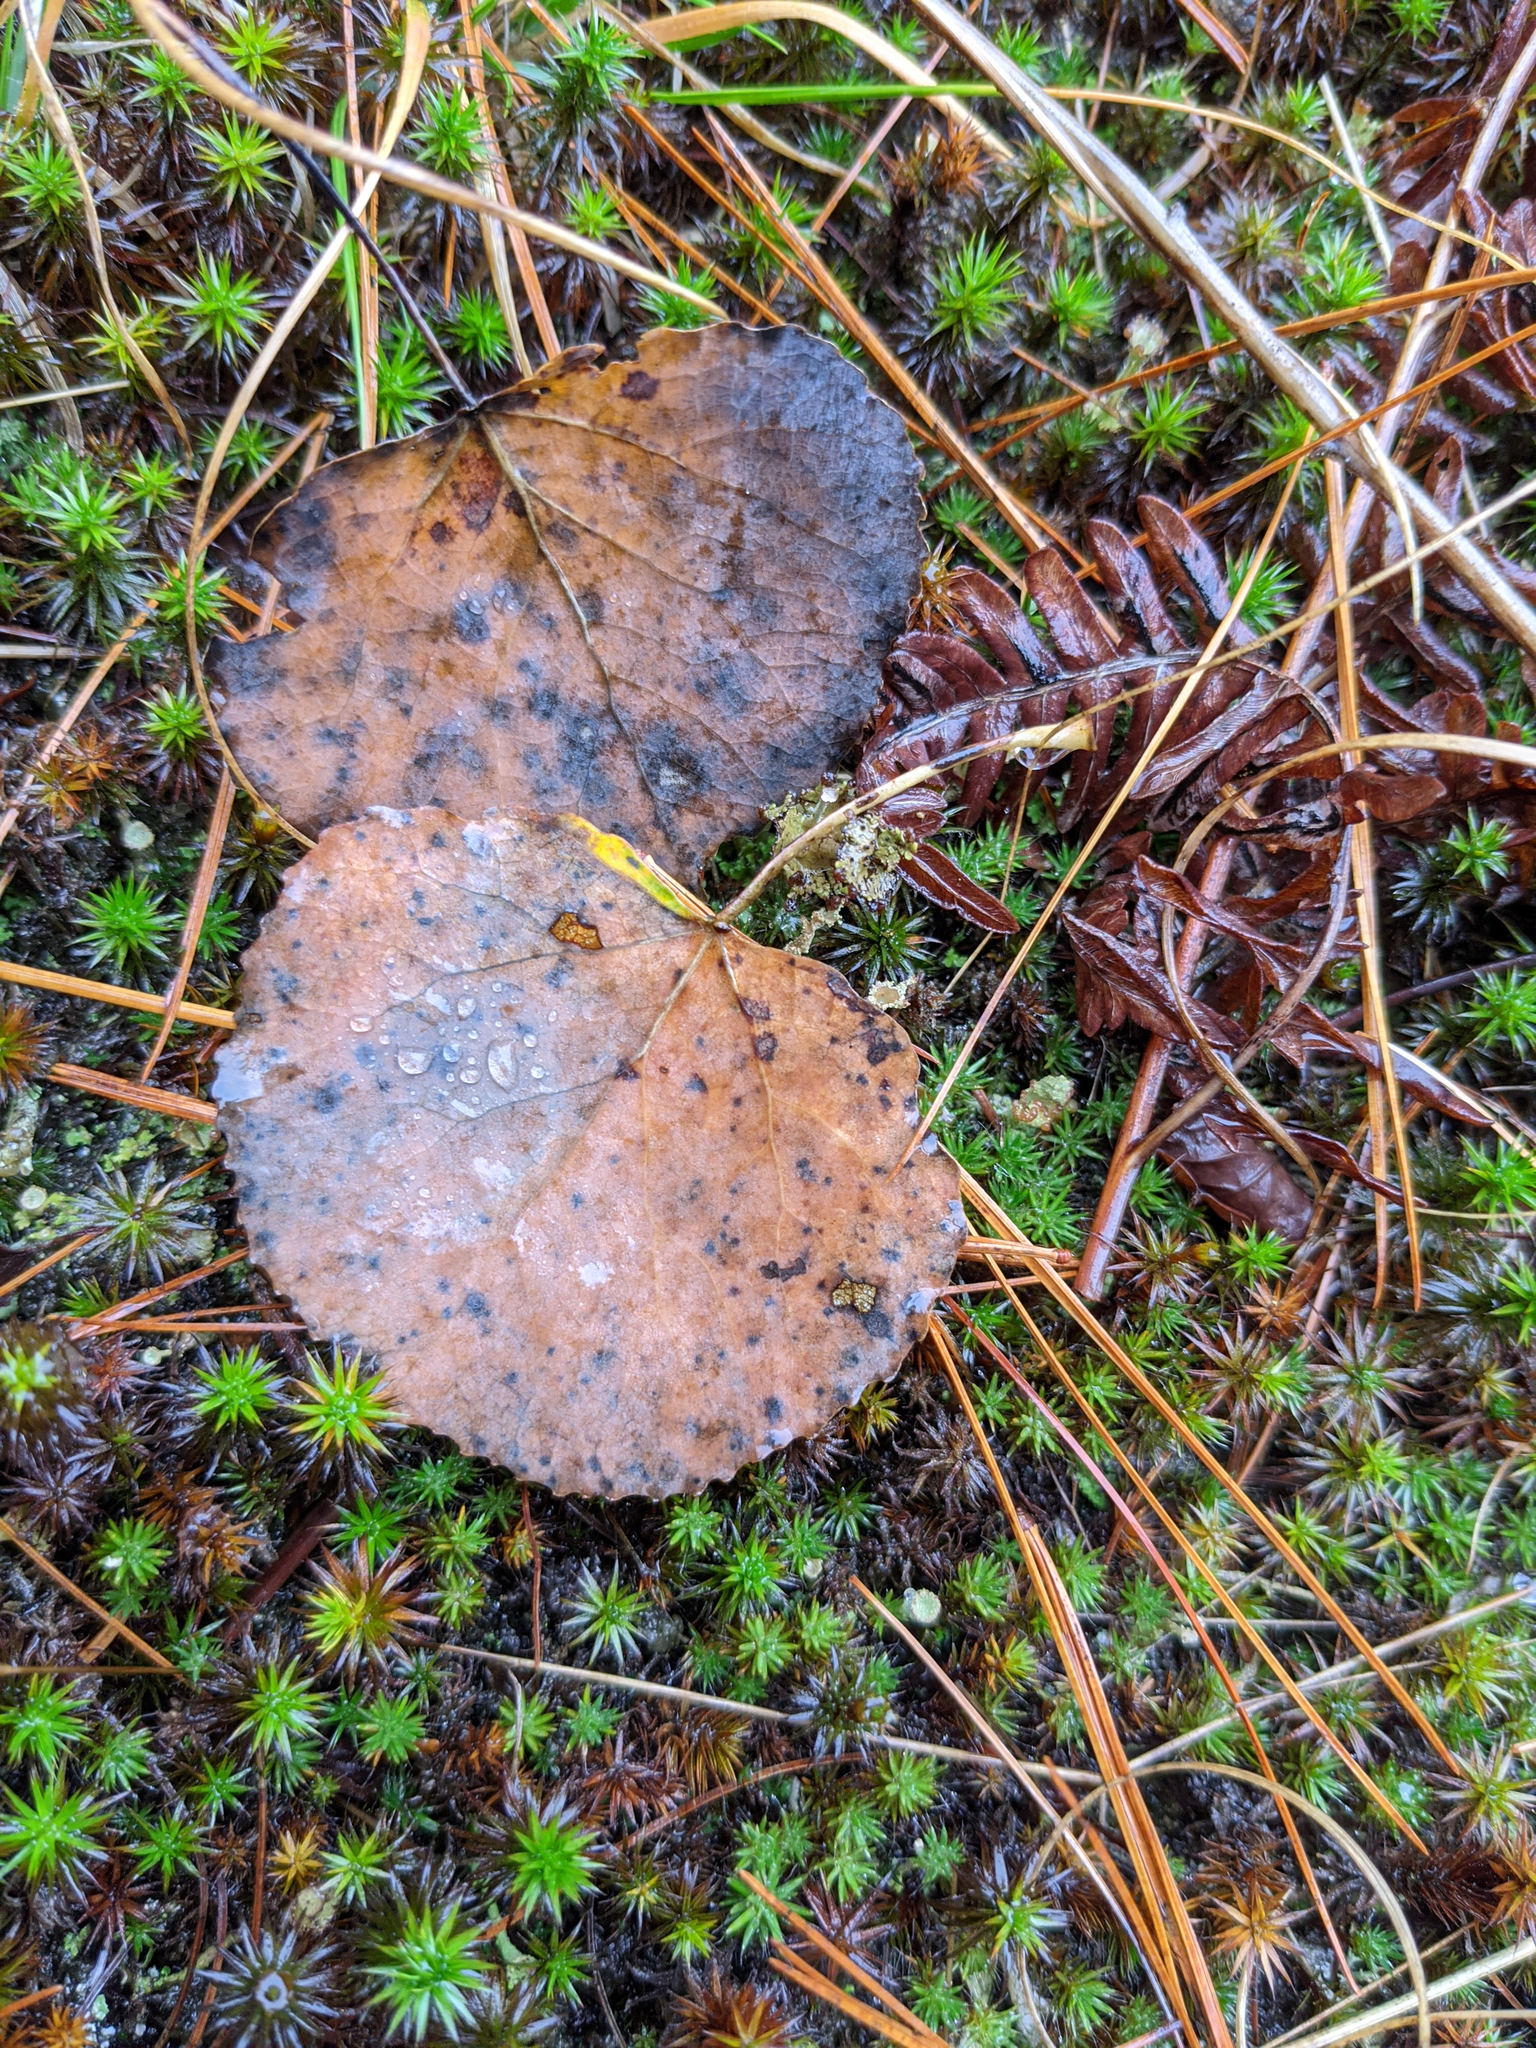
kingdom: Plantae
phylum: Tracheophyta
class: Magnoliopsida
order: Malpighiales
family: Salicaceae
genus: Populus
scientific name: Populus tremuloides
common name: Quaking aspen
